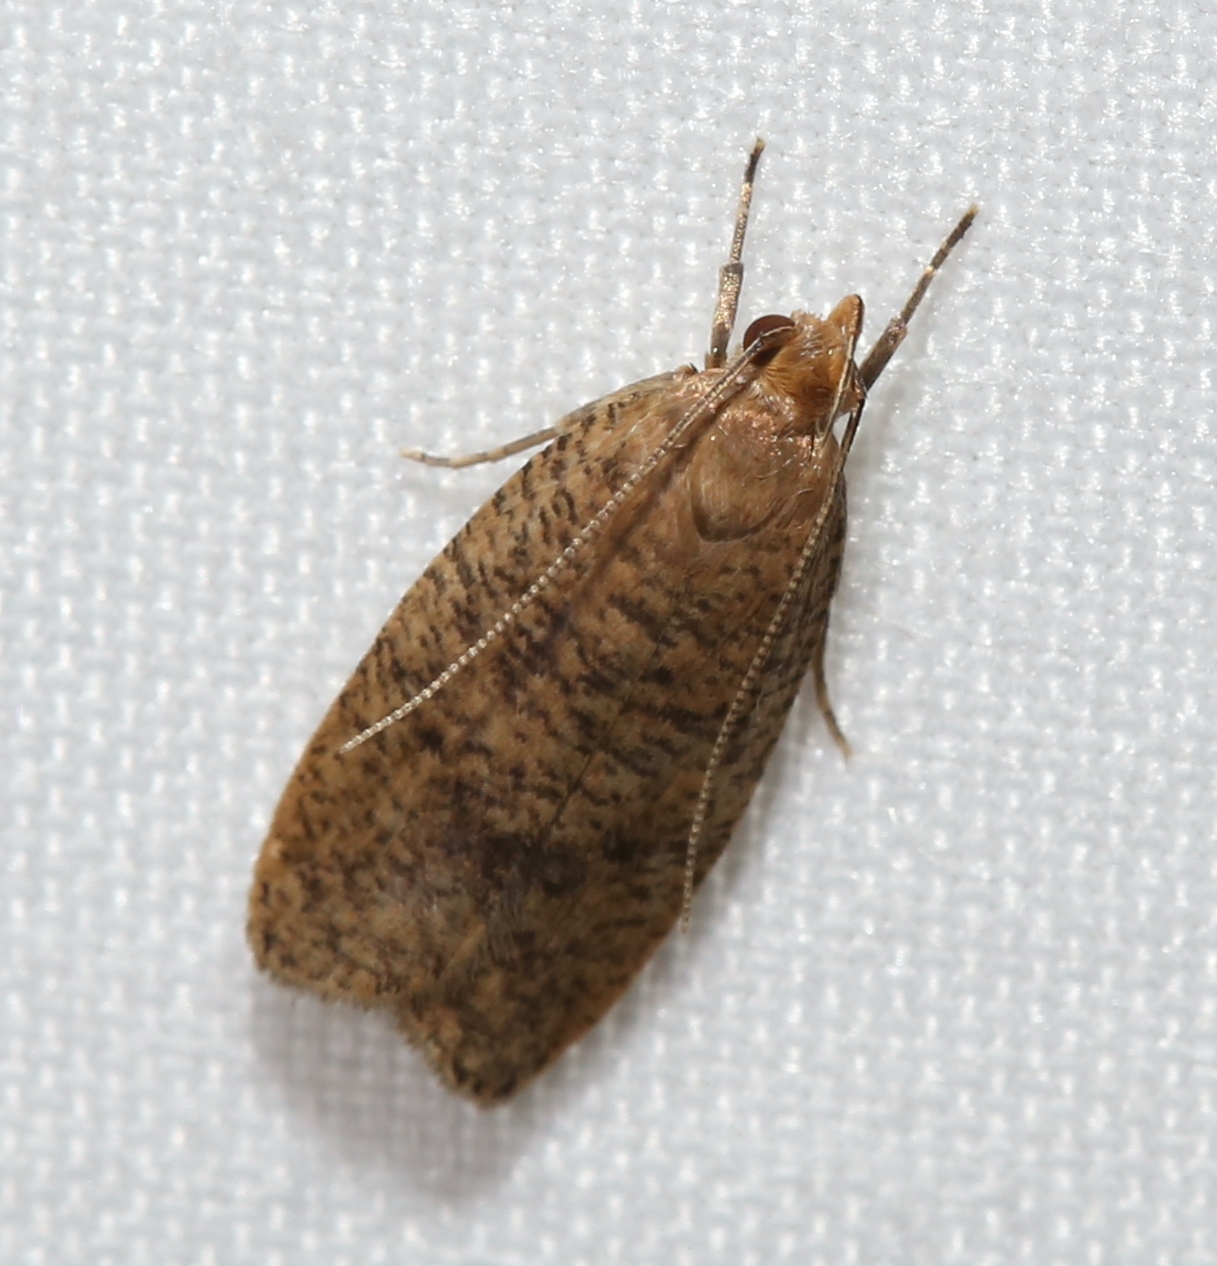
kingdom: Animalia
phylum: Arthropoda
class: Insecta
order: Lepidoptera
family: Depressariidae
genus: Psilocorsis
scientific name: Psilocorsis reflexella
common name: Dotted leaftier moth
